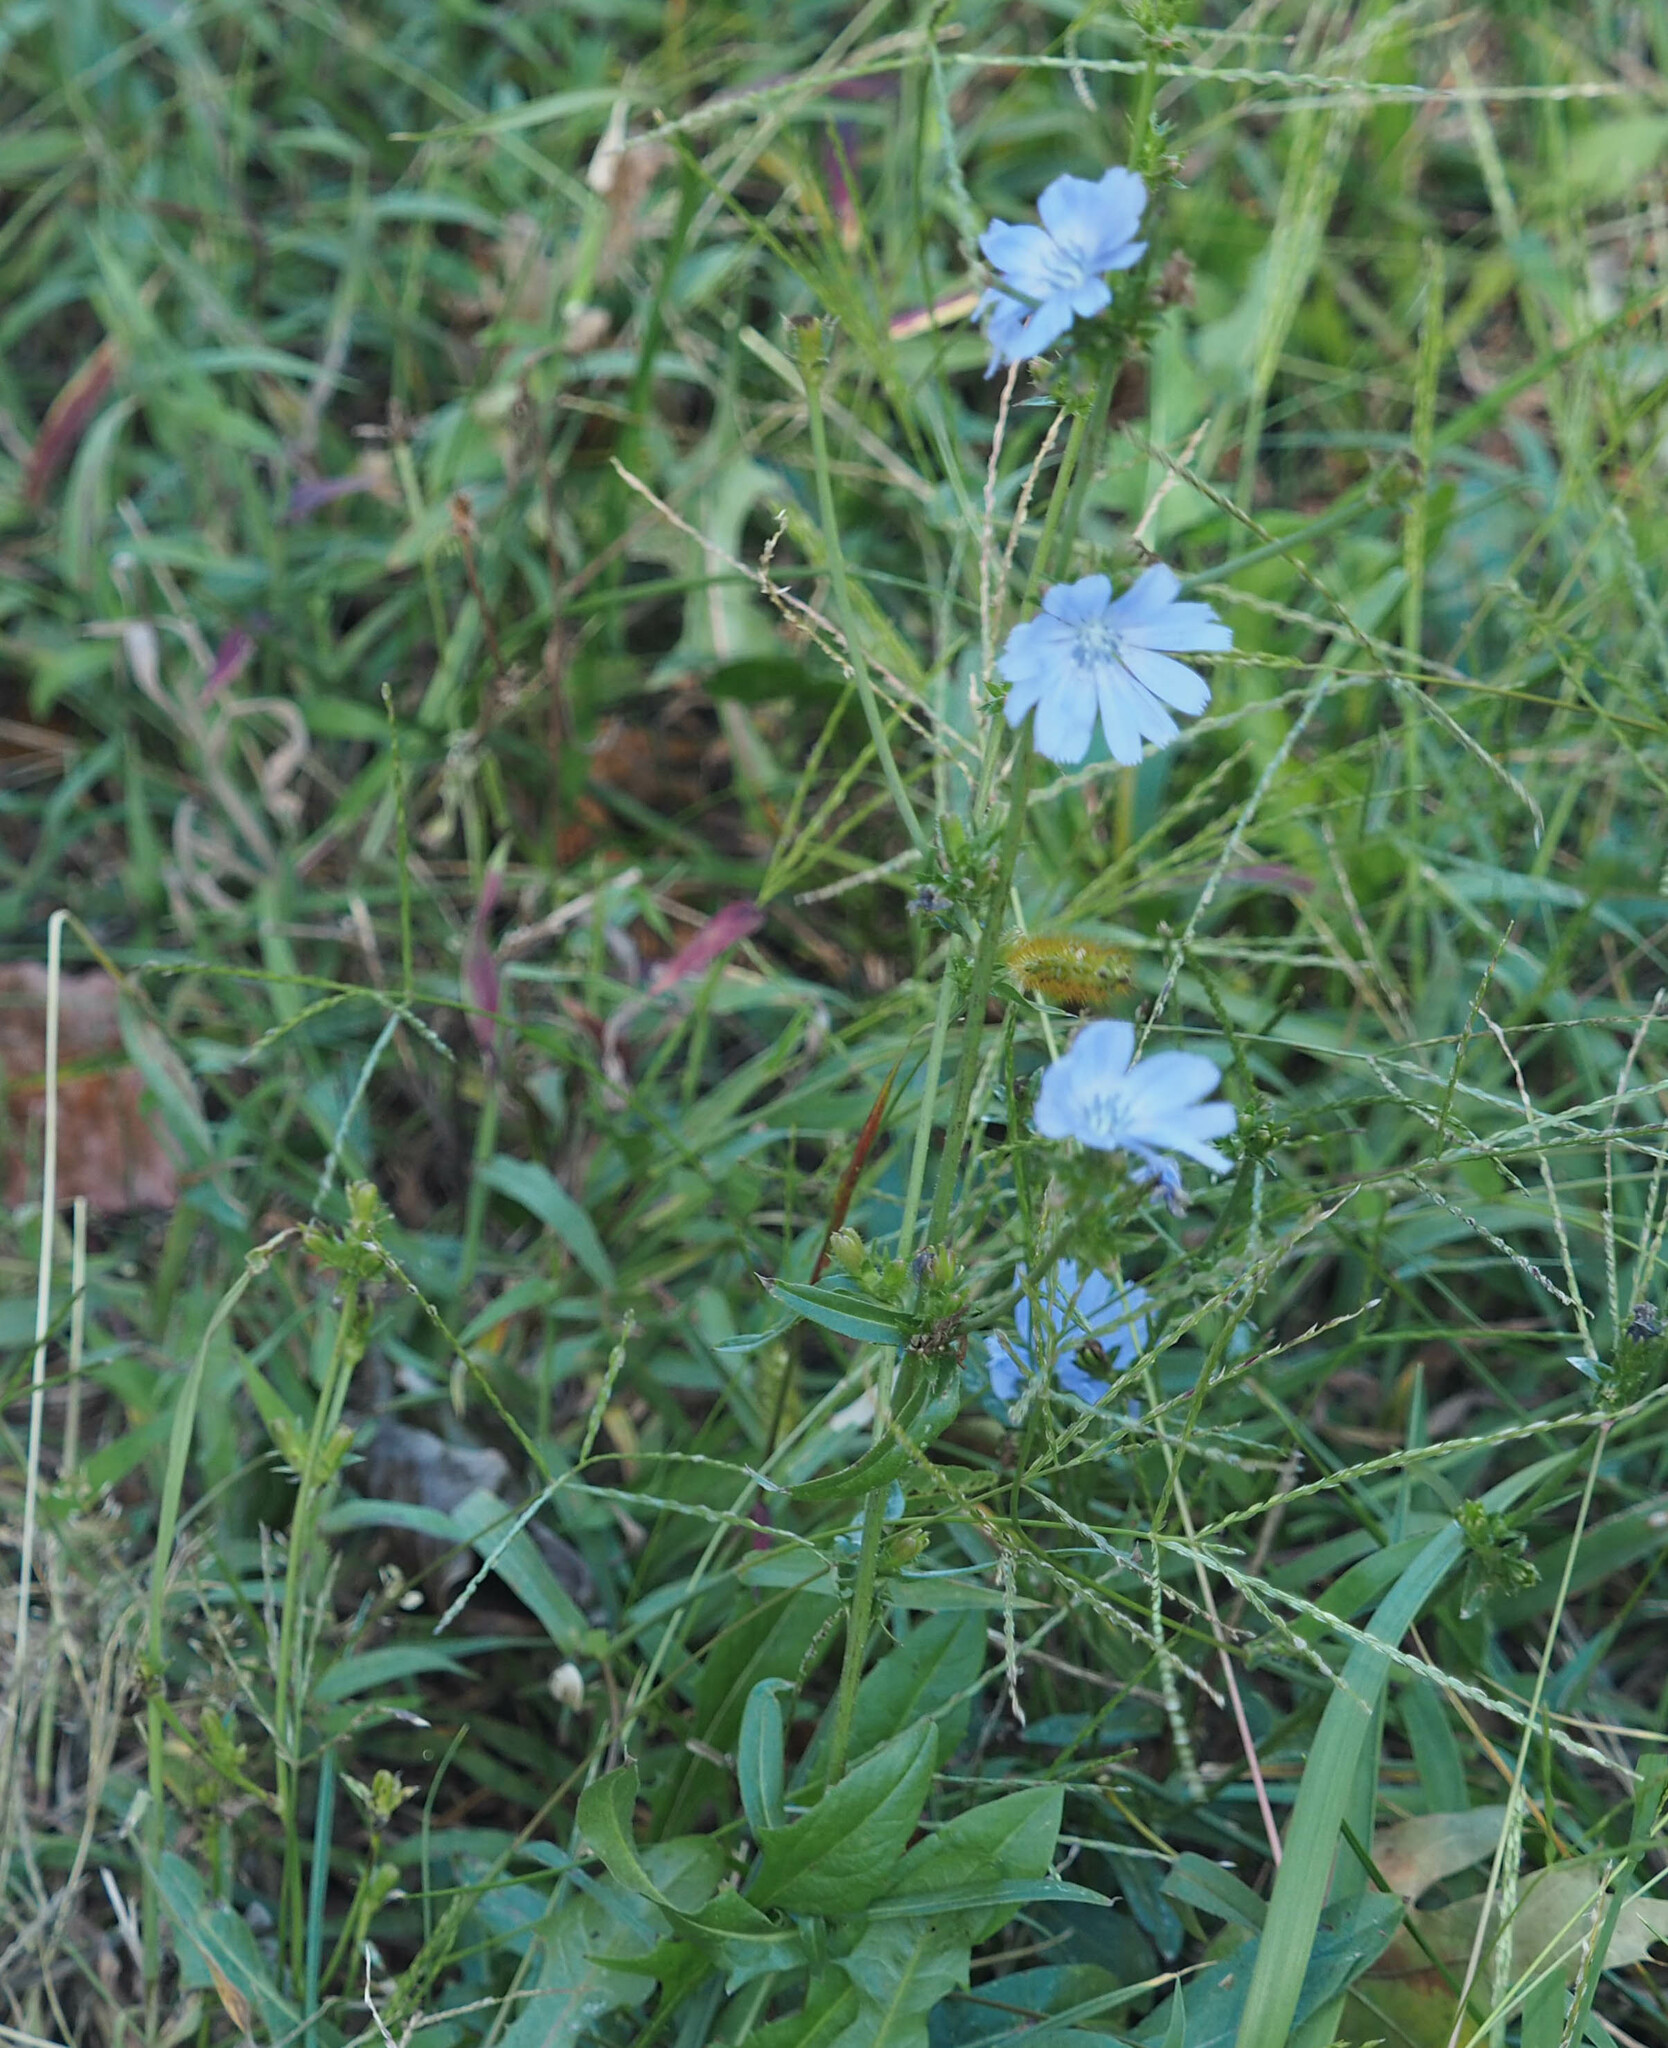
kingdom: Plantae
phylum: Tracheophyta
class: Magnoliopsida
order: Asterales
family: Asteraceae
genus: Cichorium
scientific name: Cichorium intybus
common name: Chicory
